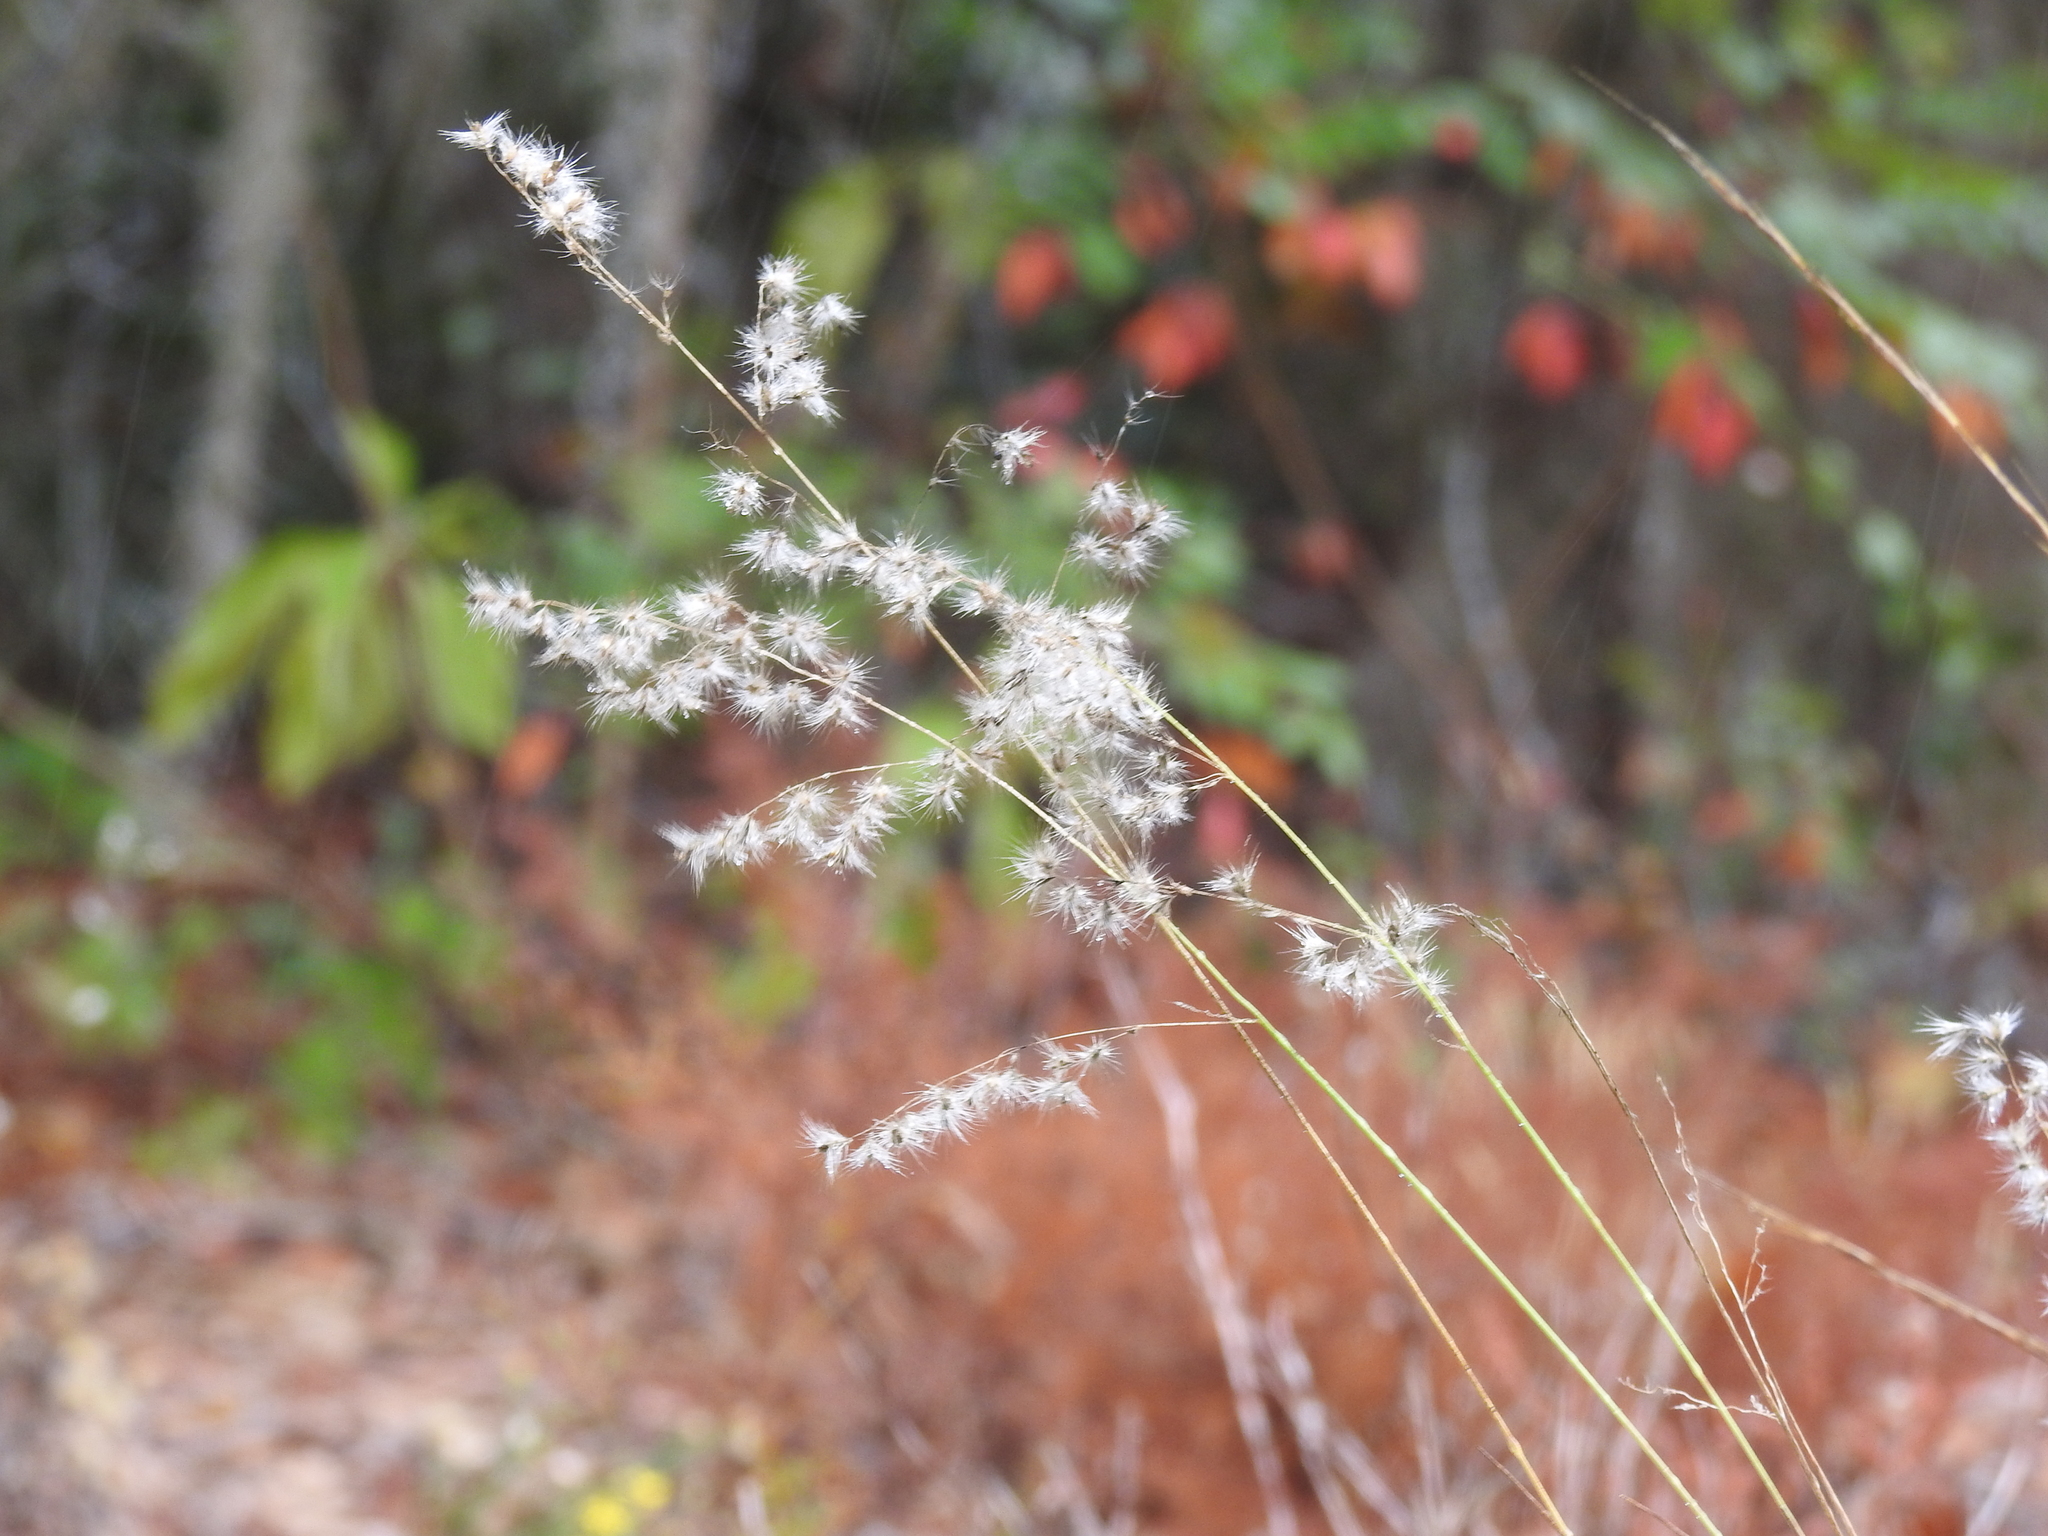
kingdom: Plantae
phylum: Tracheophyta
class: Liliopsida
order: Poales
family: Poaceae
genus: Melinis
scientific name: Melinis repens
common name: Rose natal grass
